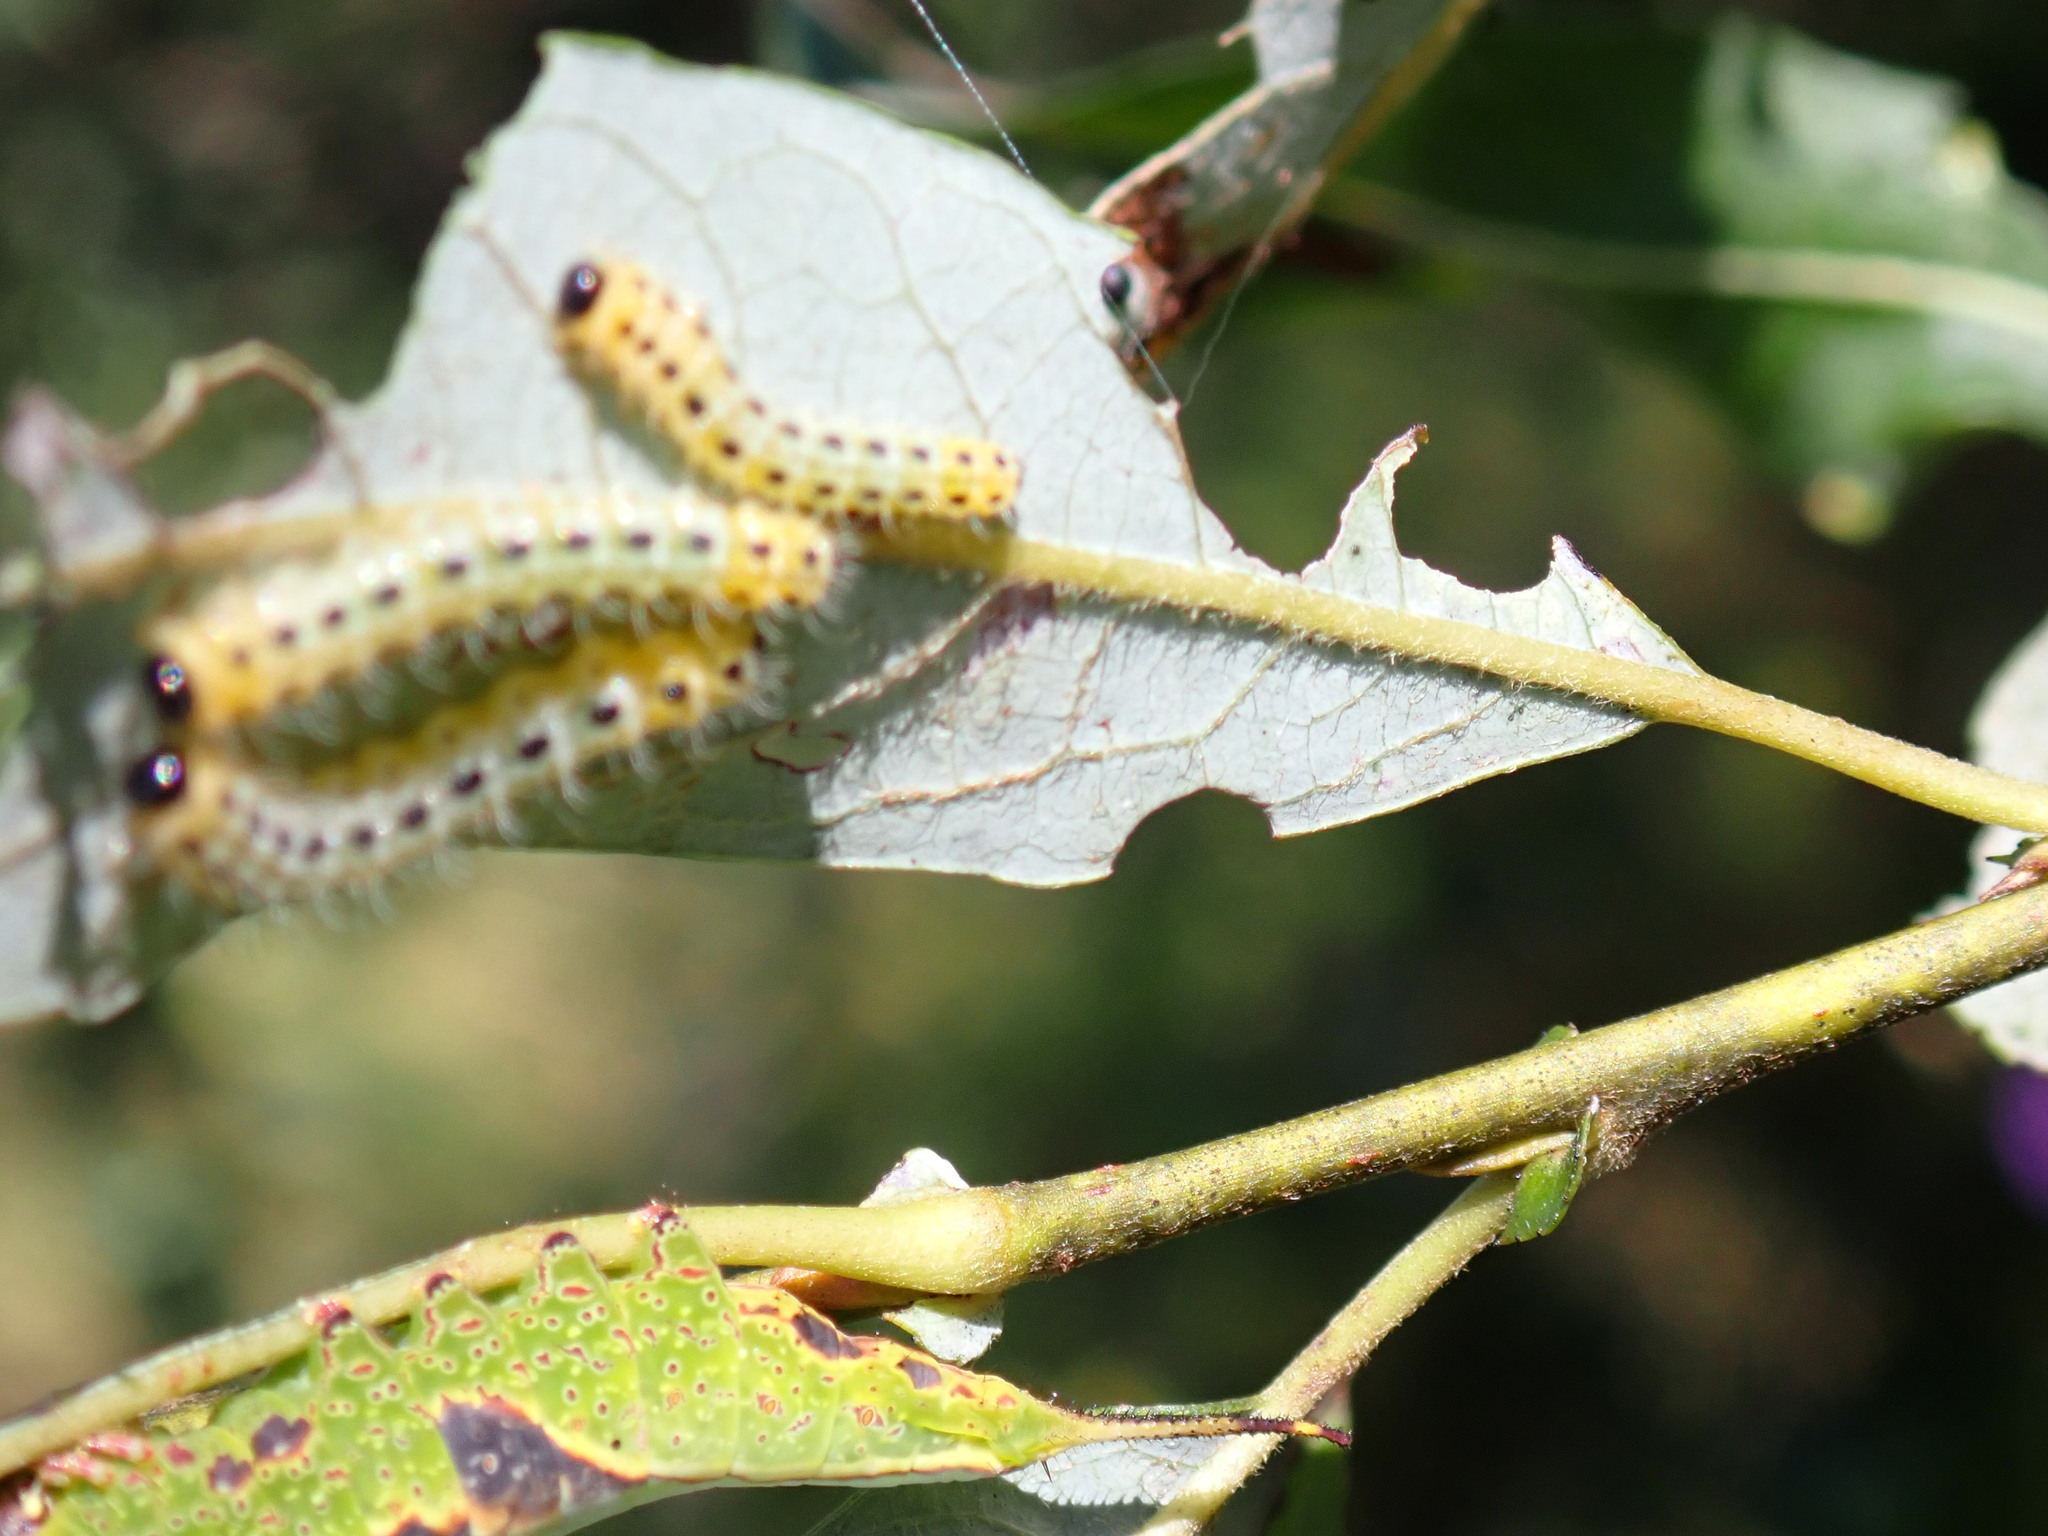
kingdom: Animalia
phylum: Arthropoda
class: Insecta
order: Hymenoptera
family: Tenthredinidae
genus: Cladius
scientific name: Cladius grandis
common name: Common sawfly
